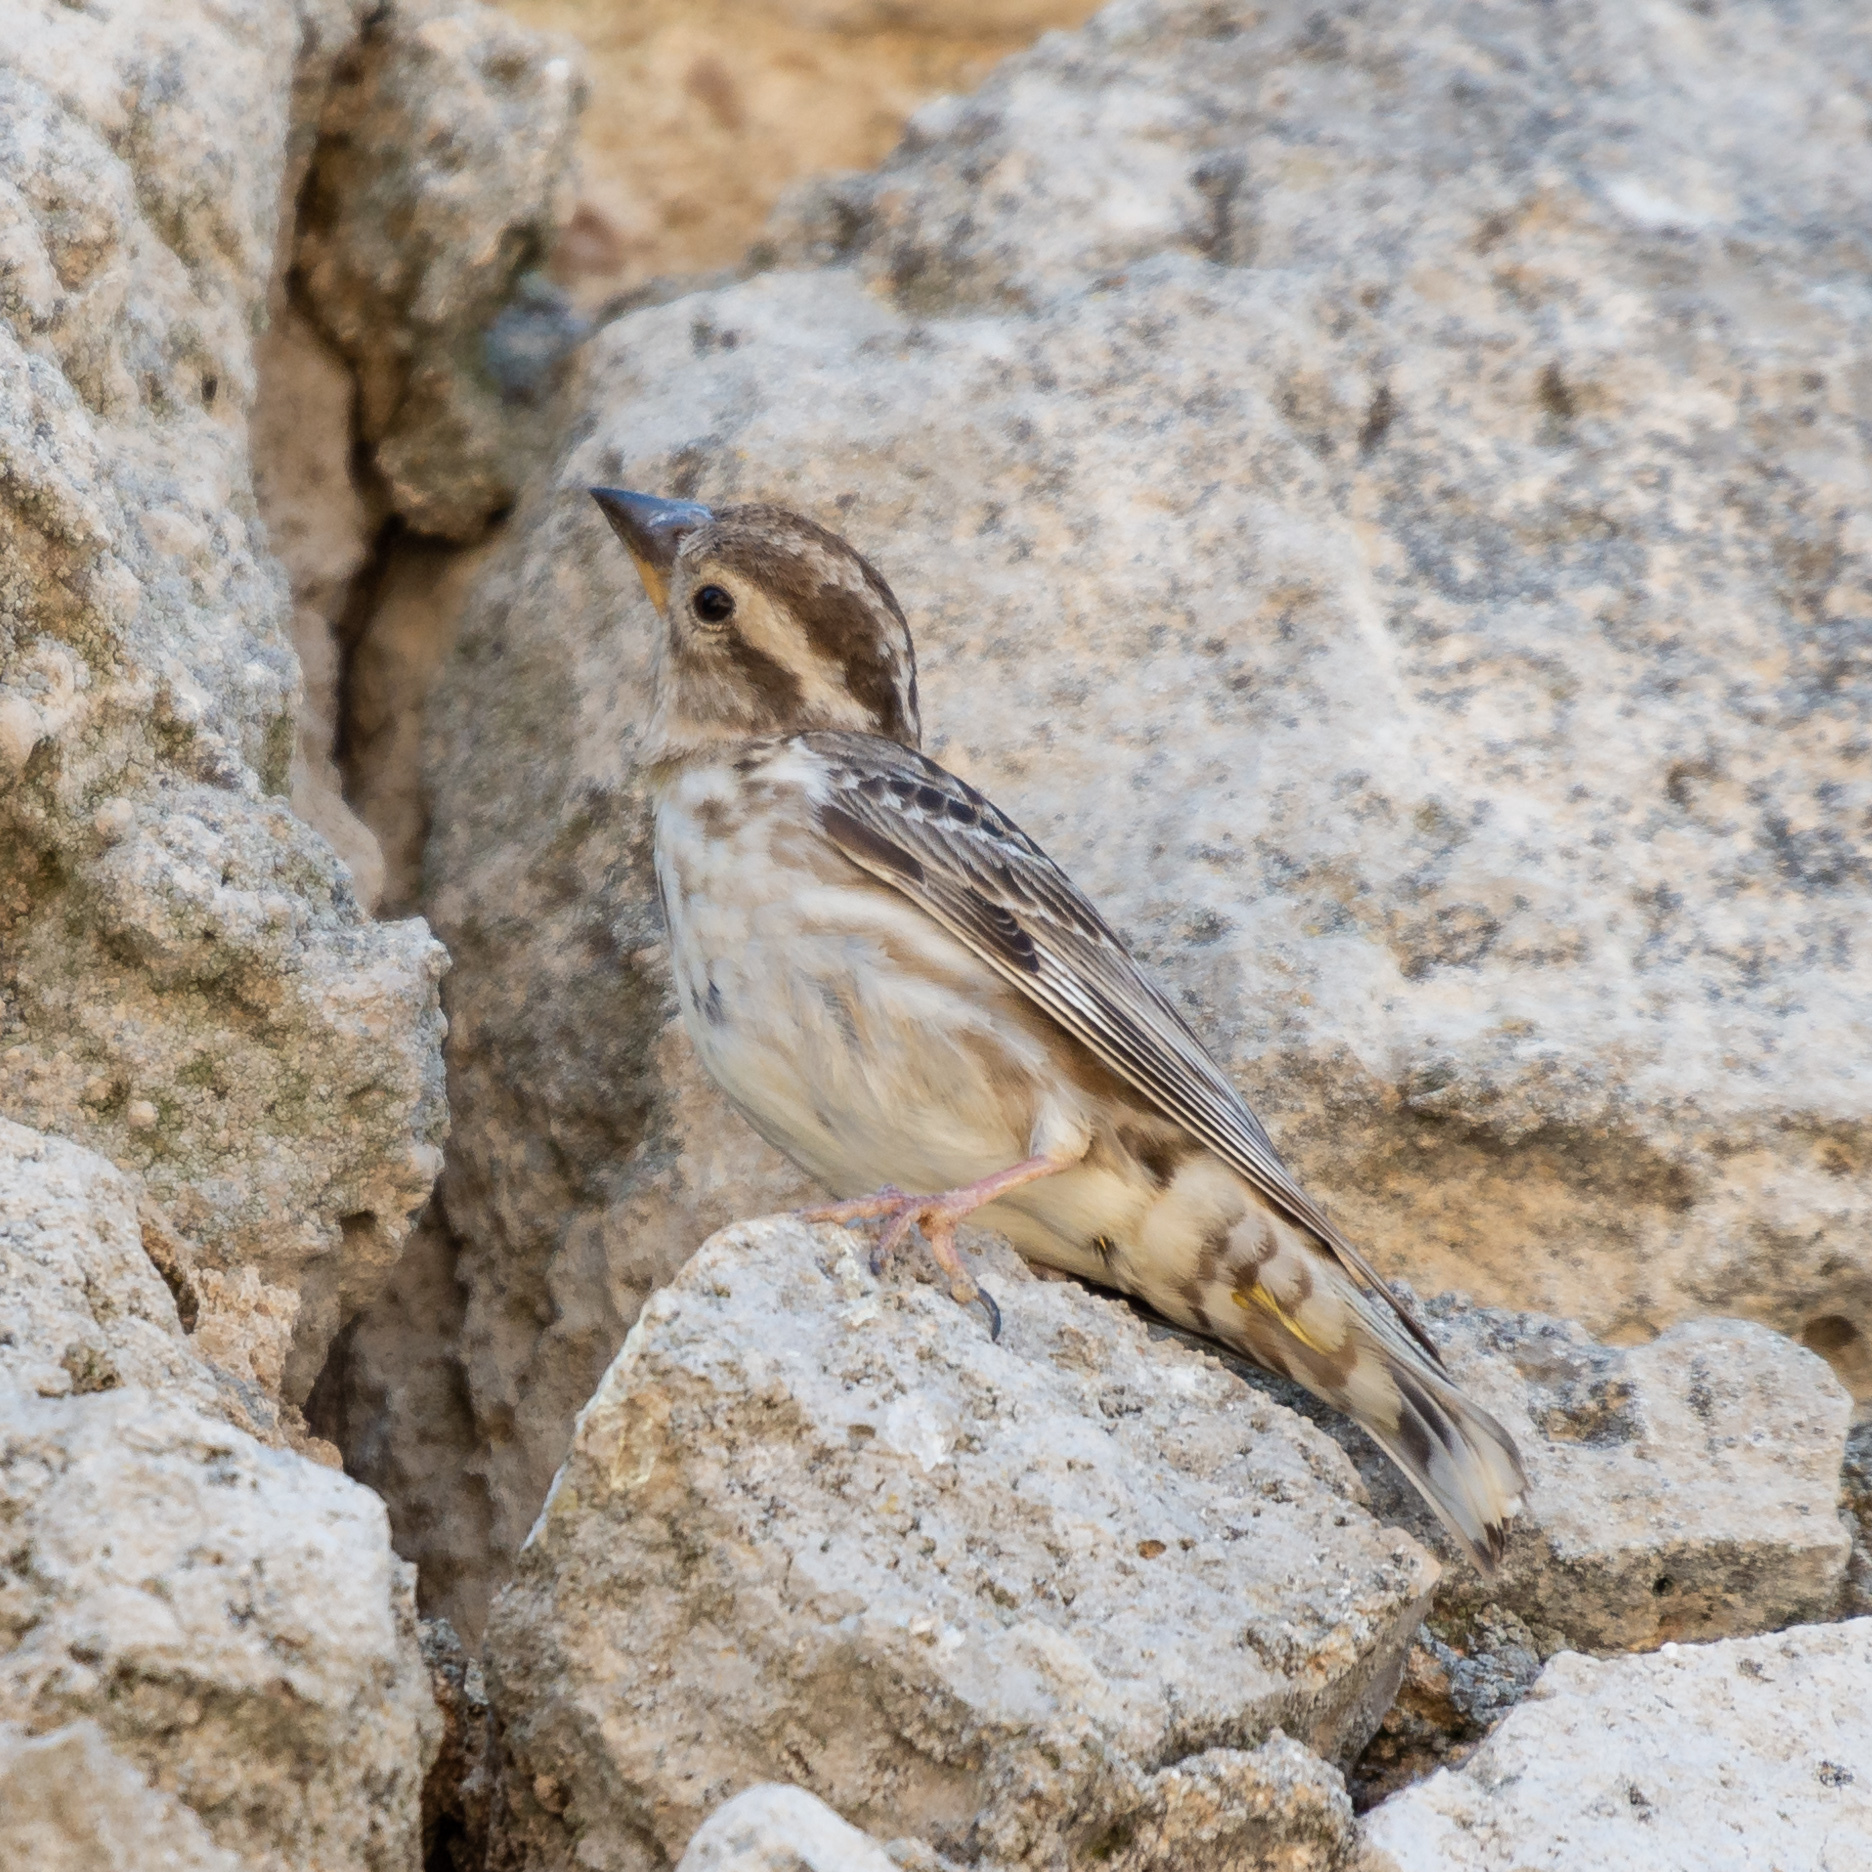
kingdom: Animalia
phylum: Chordata
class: Aves
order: Passeriformes
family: Passeridae
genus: Petronia
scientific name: Petronia petronia
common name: Rock sparrow
